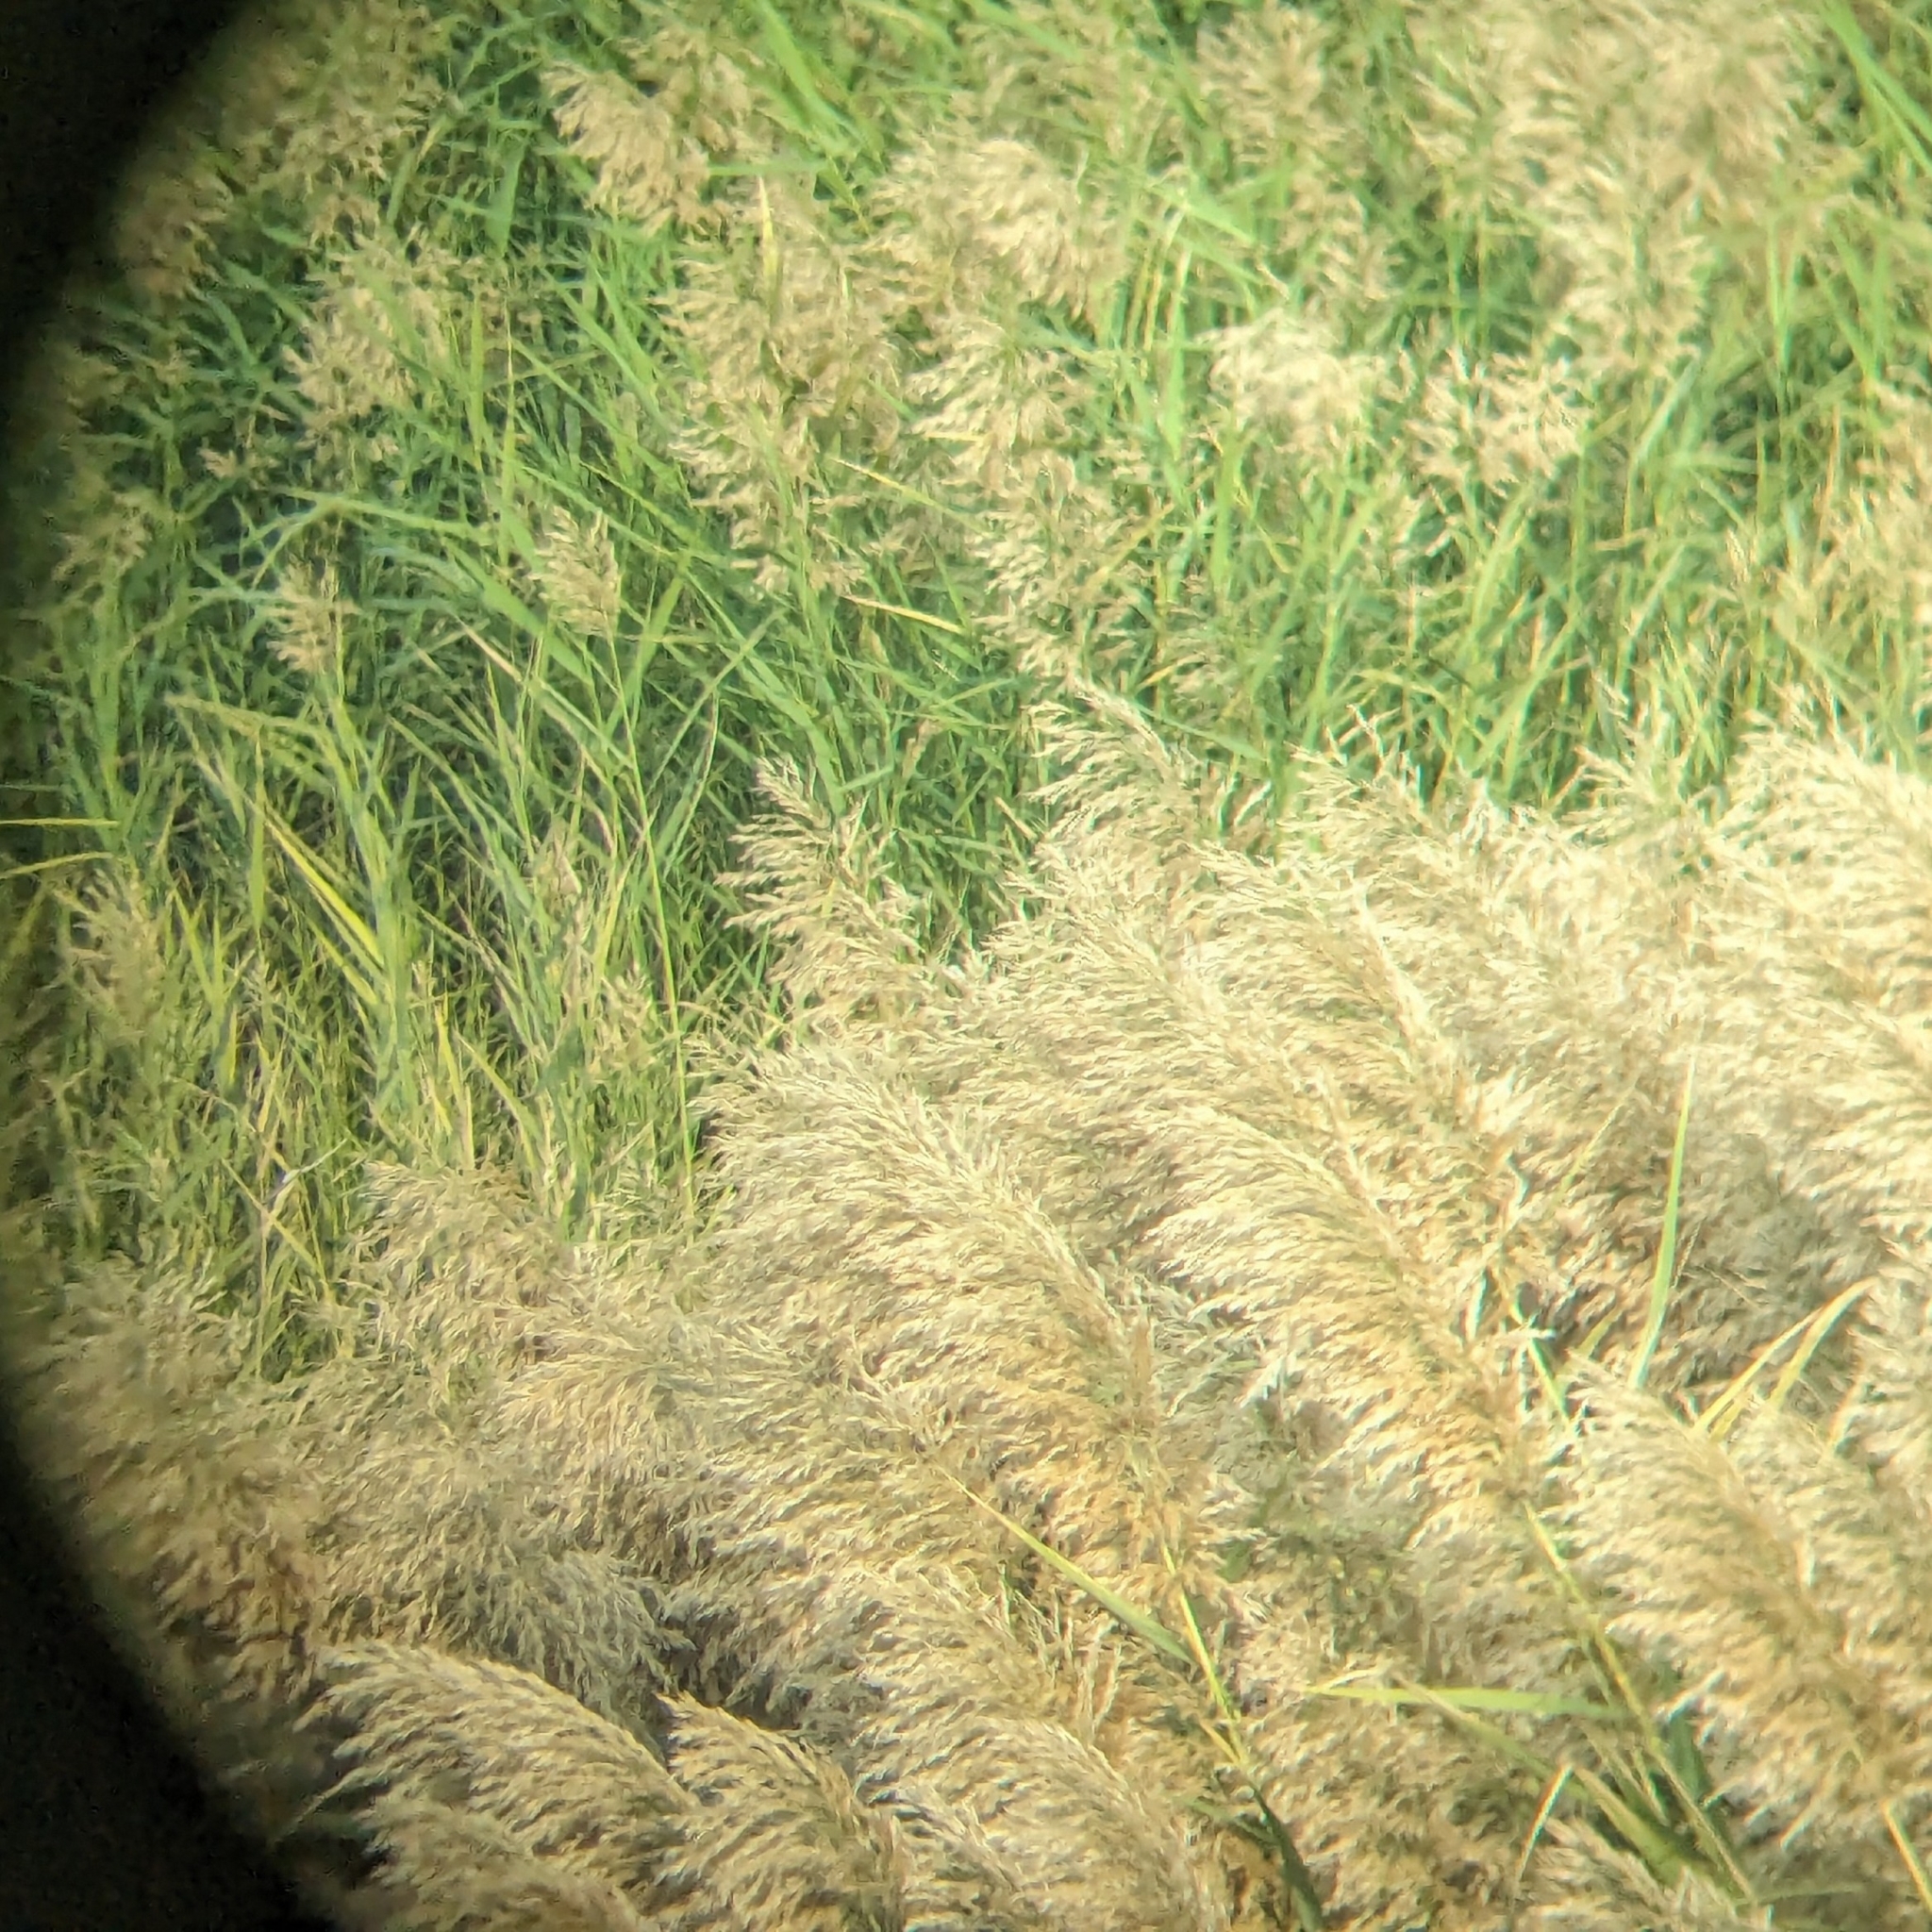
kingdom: Plantae
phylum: Tracheophyta
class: Liliopsida
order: Poales
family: Poaceae
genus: Phragmites
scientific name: Phragmites karka
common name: Tropical reed
